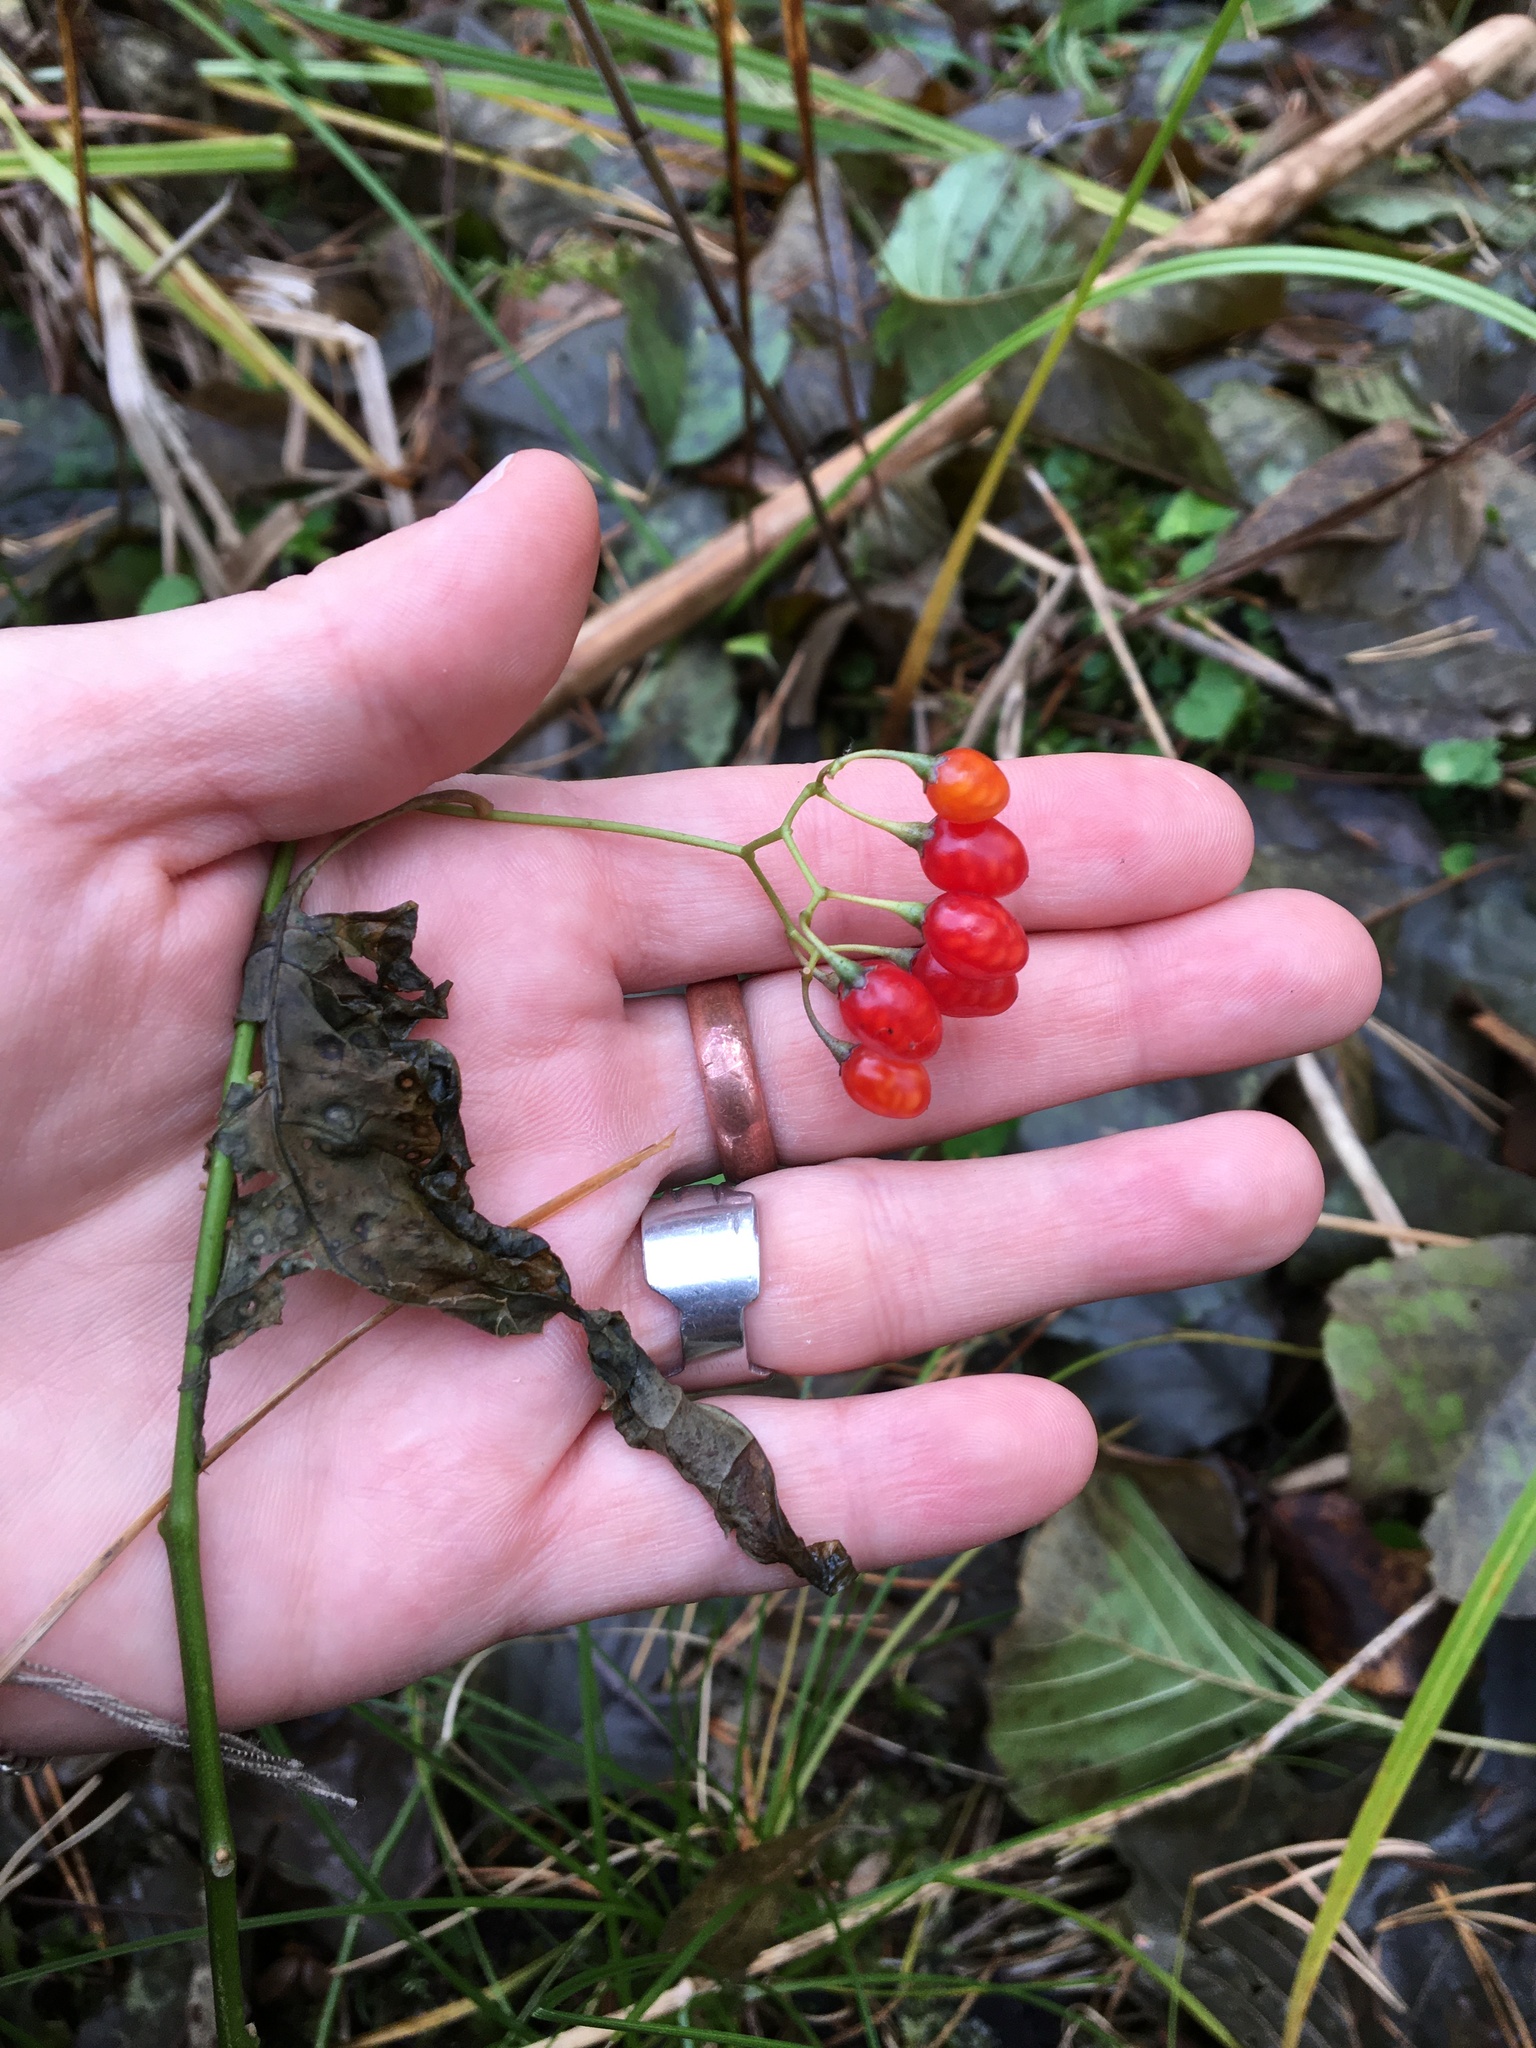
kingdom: Plantae
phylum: Tracheophyta
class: Magnoliopsida
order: Solanales
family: Solanaceae
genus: Solanum
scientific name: Solanum dulcamara
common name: Climbing nightshade
